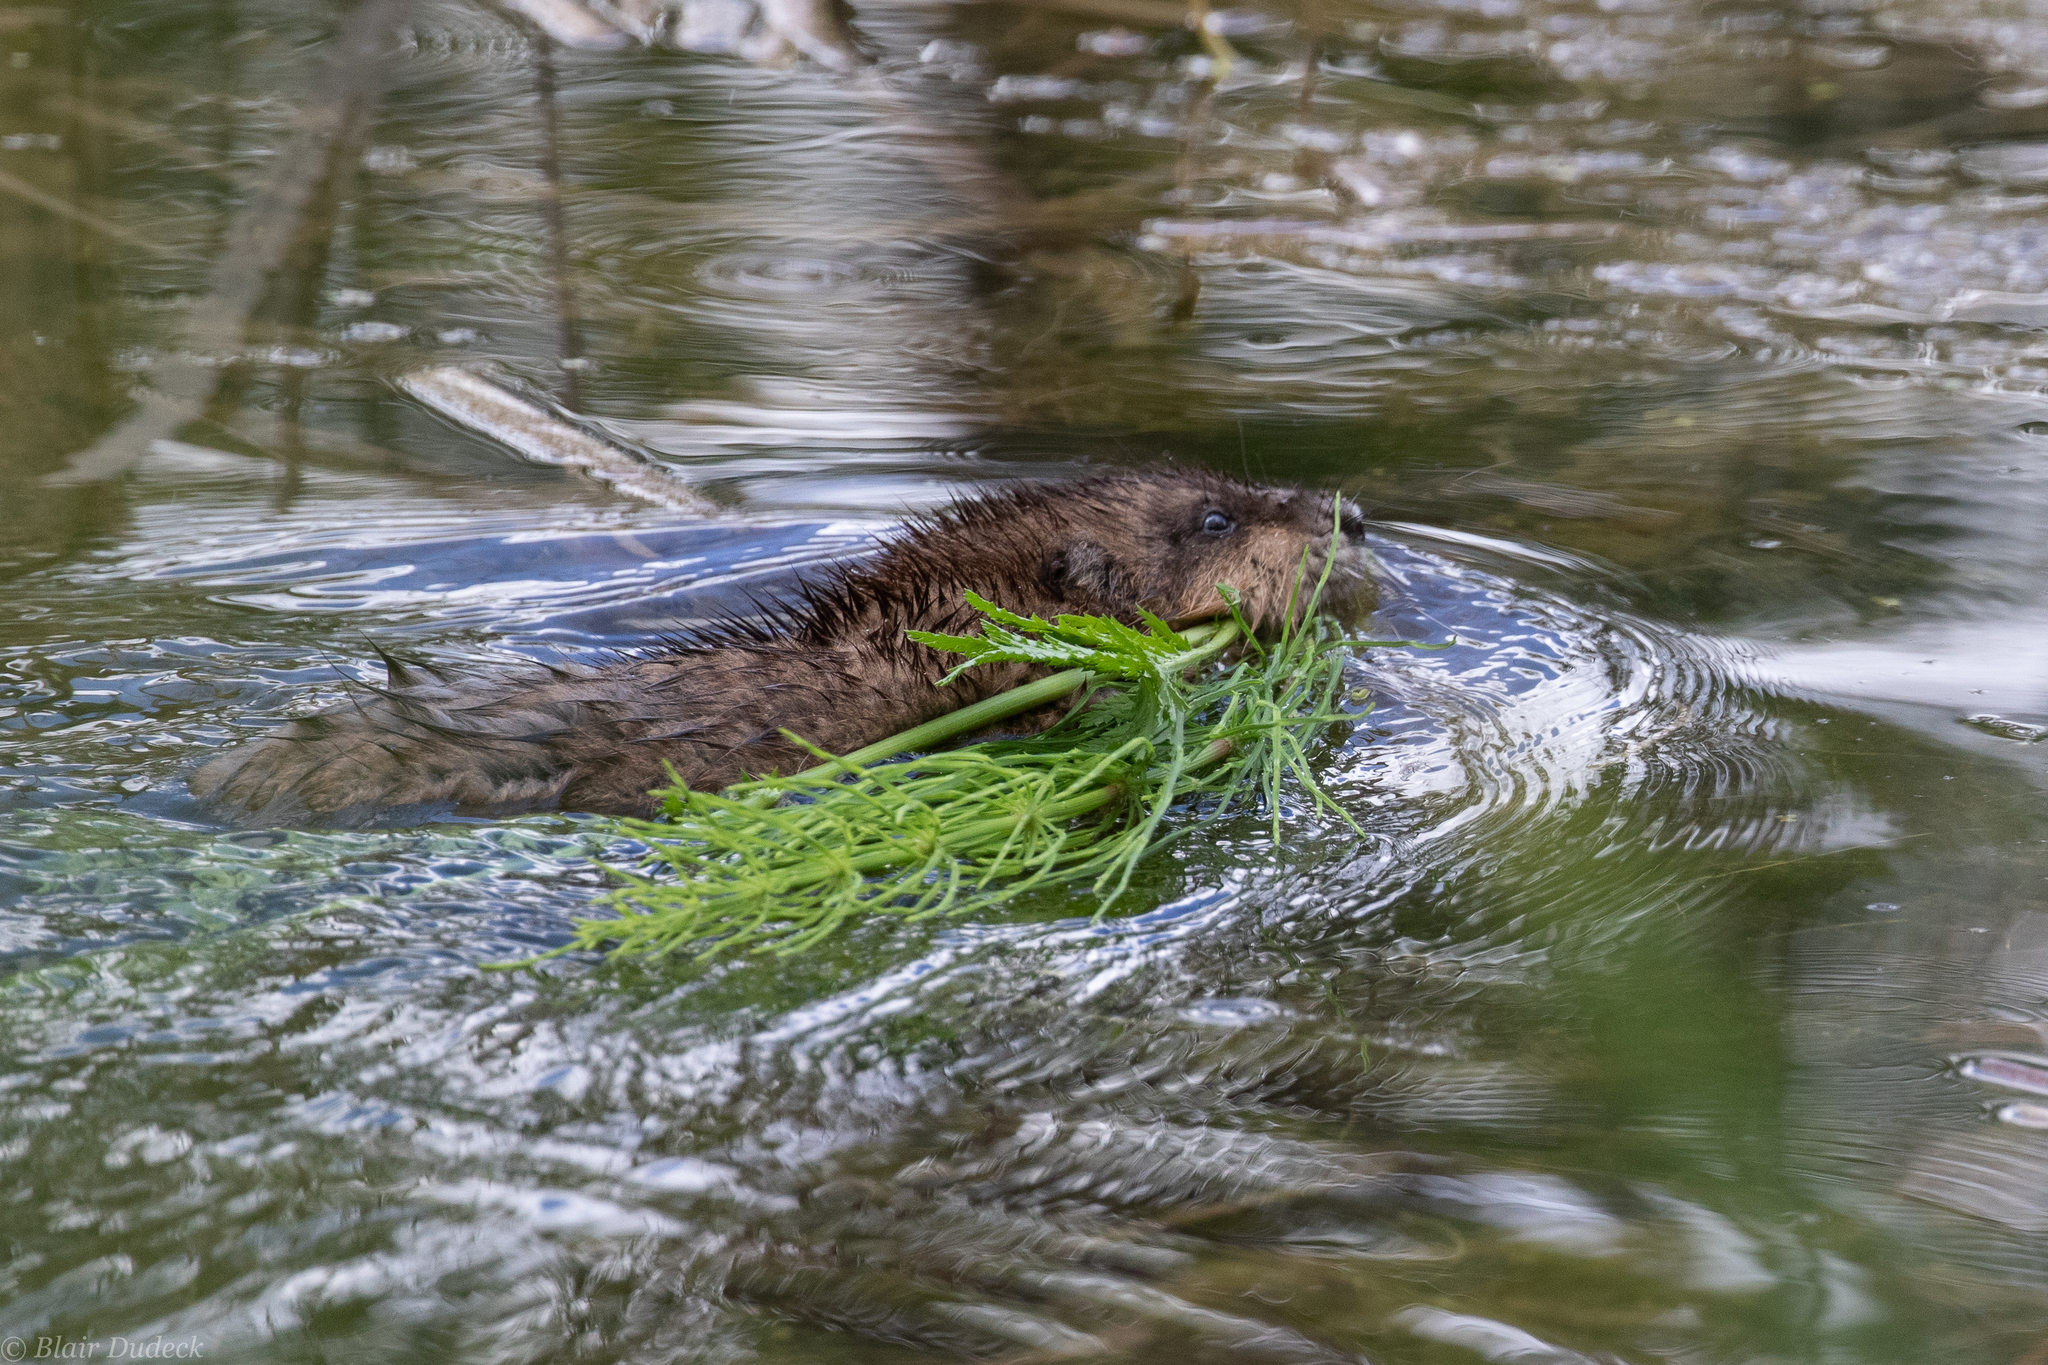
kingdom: Animalia
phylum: Chordata
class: Mammalia
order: Rodentia
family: Cricetidae
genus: Ondatra
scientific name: Ondatra zibethicus
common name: Muskrat
